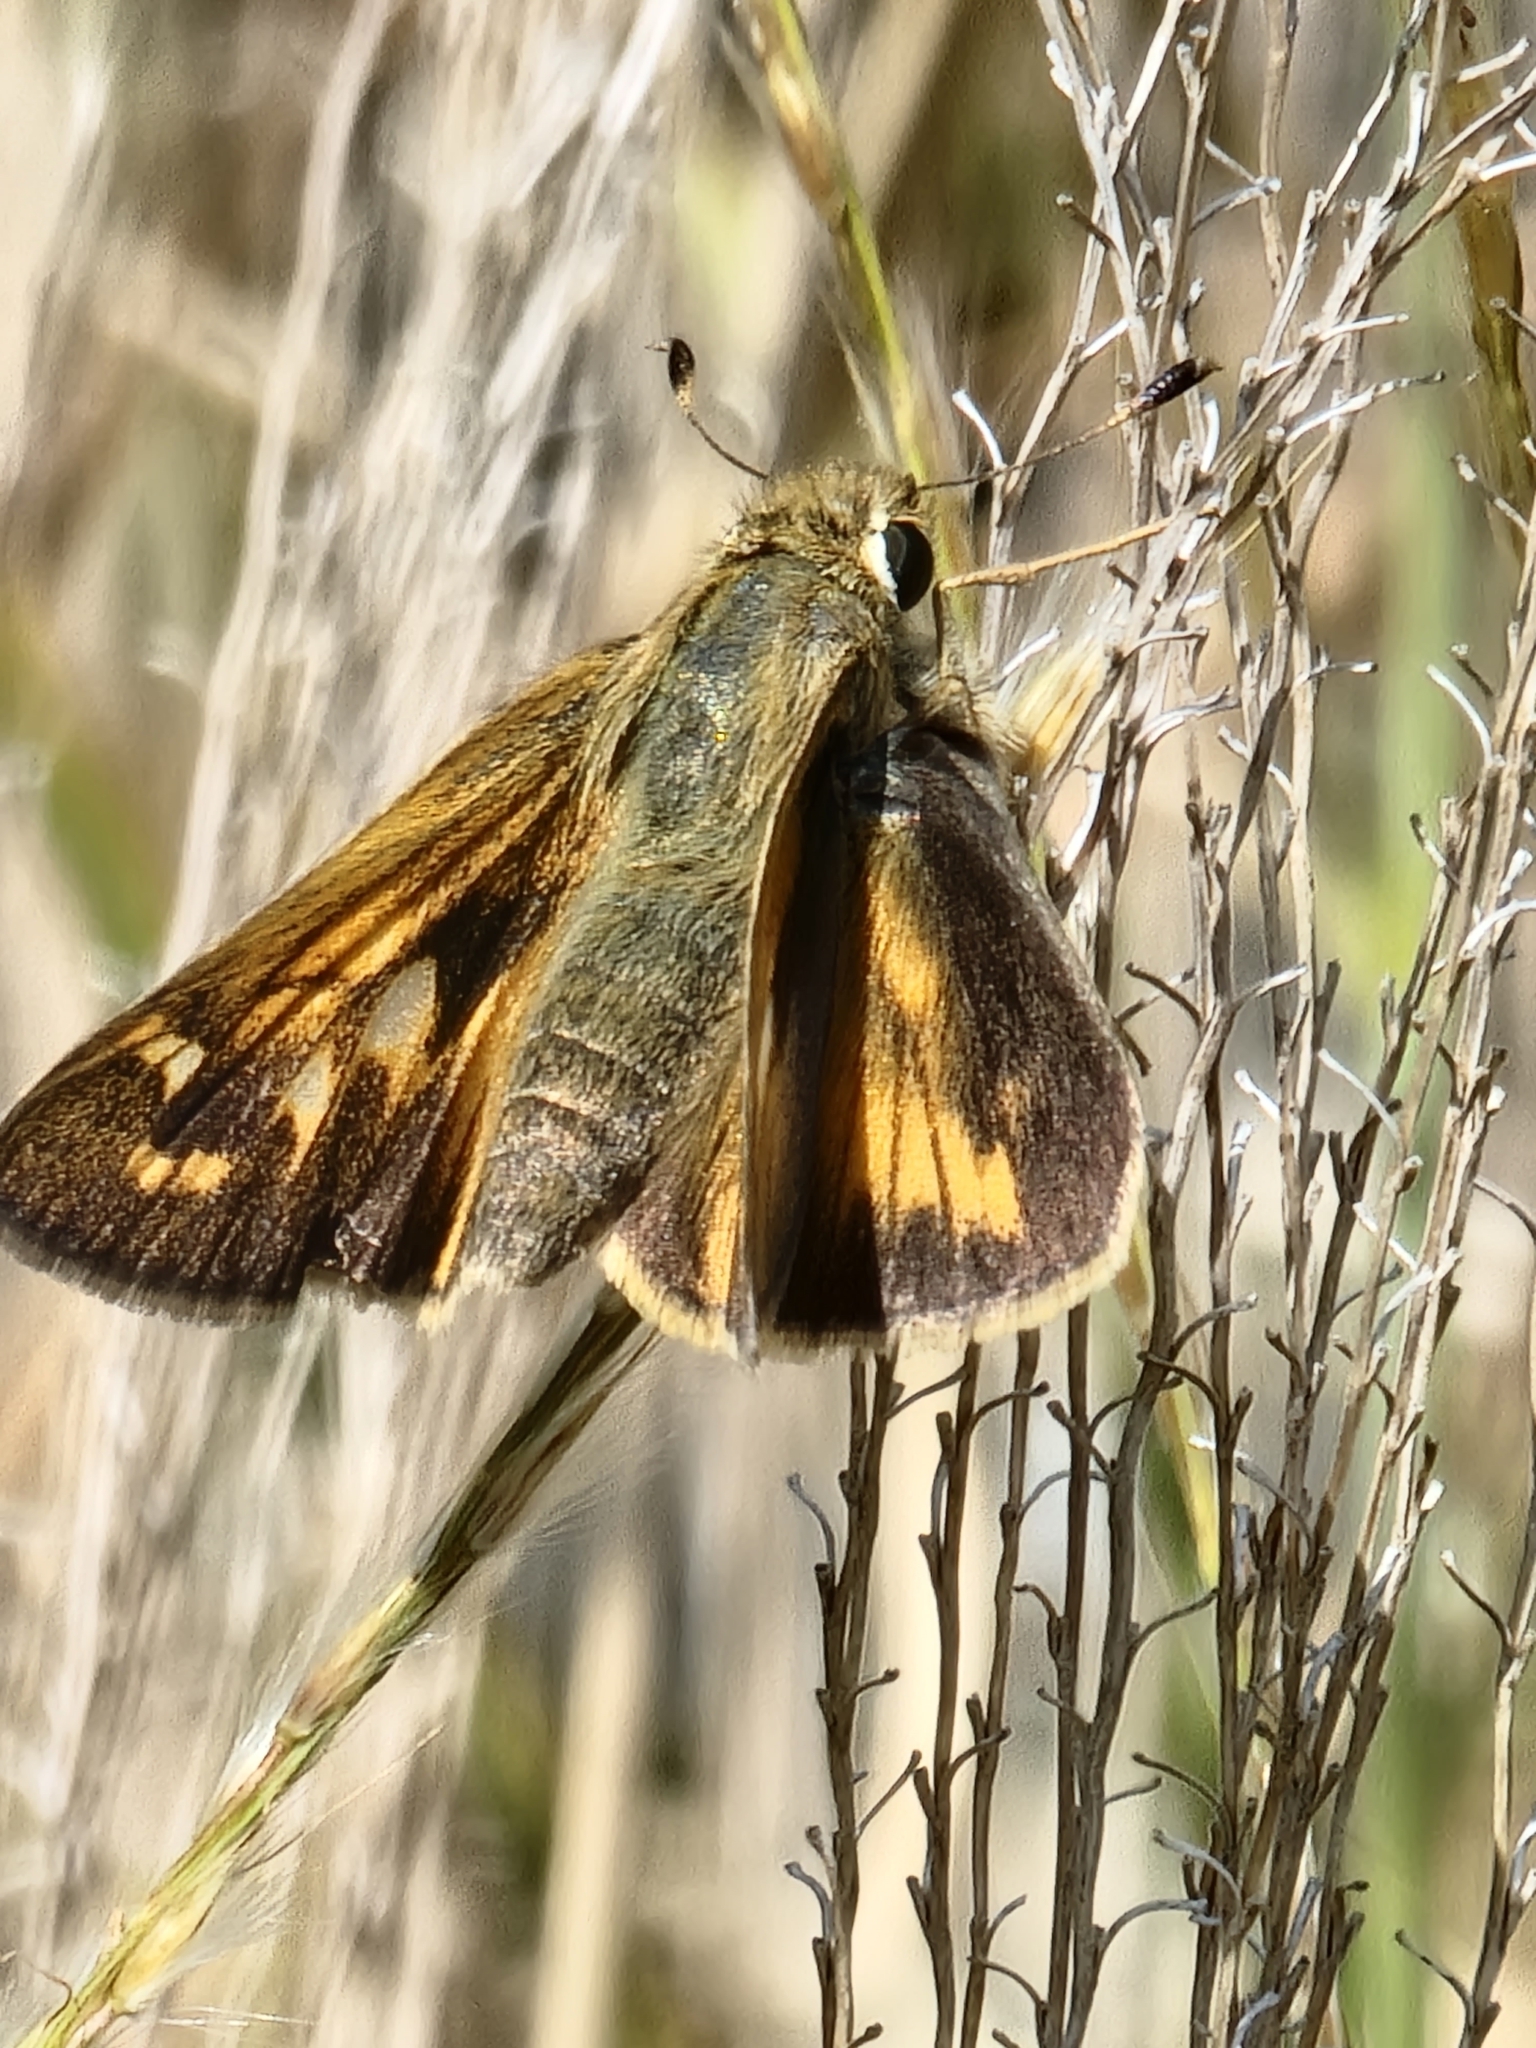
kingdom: Animalia
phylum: Arthropoda
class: Insecta
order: Lepidoptera
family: Hesperiidae
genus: Atalopedes
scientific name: Atalopedes
